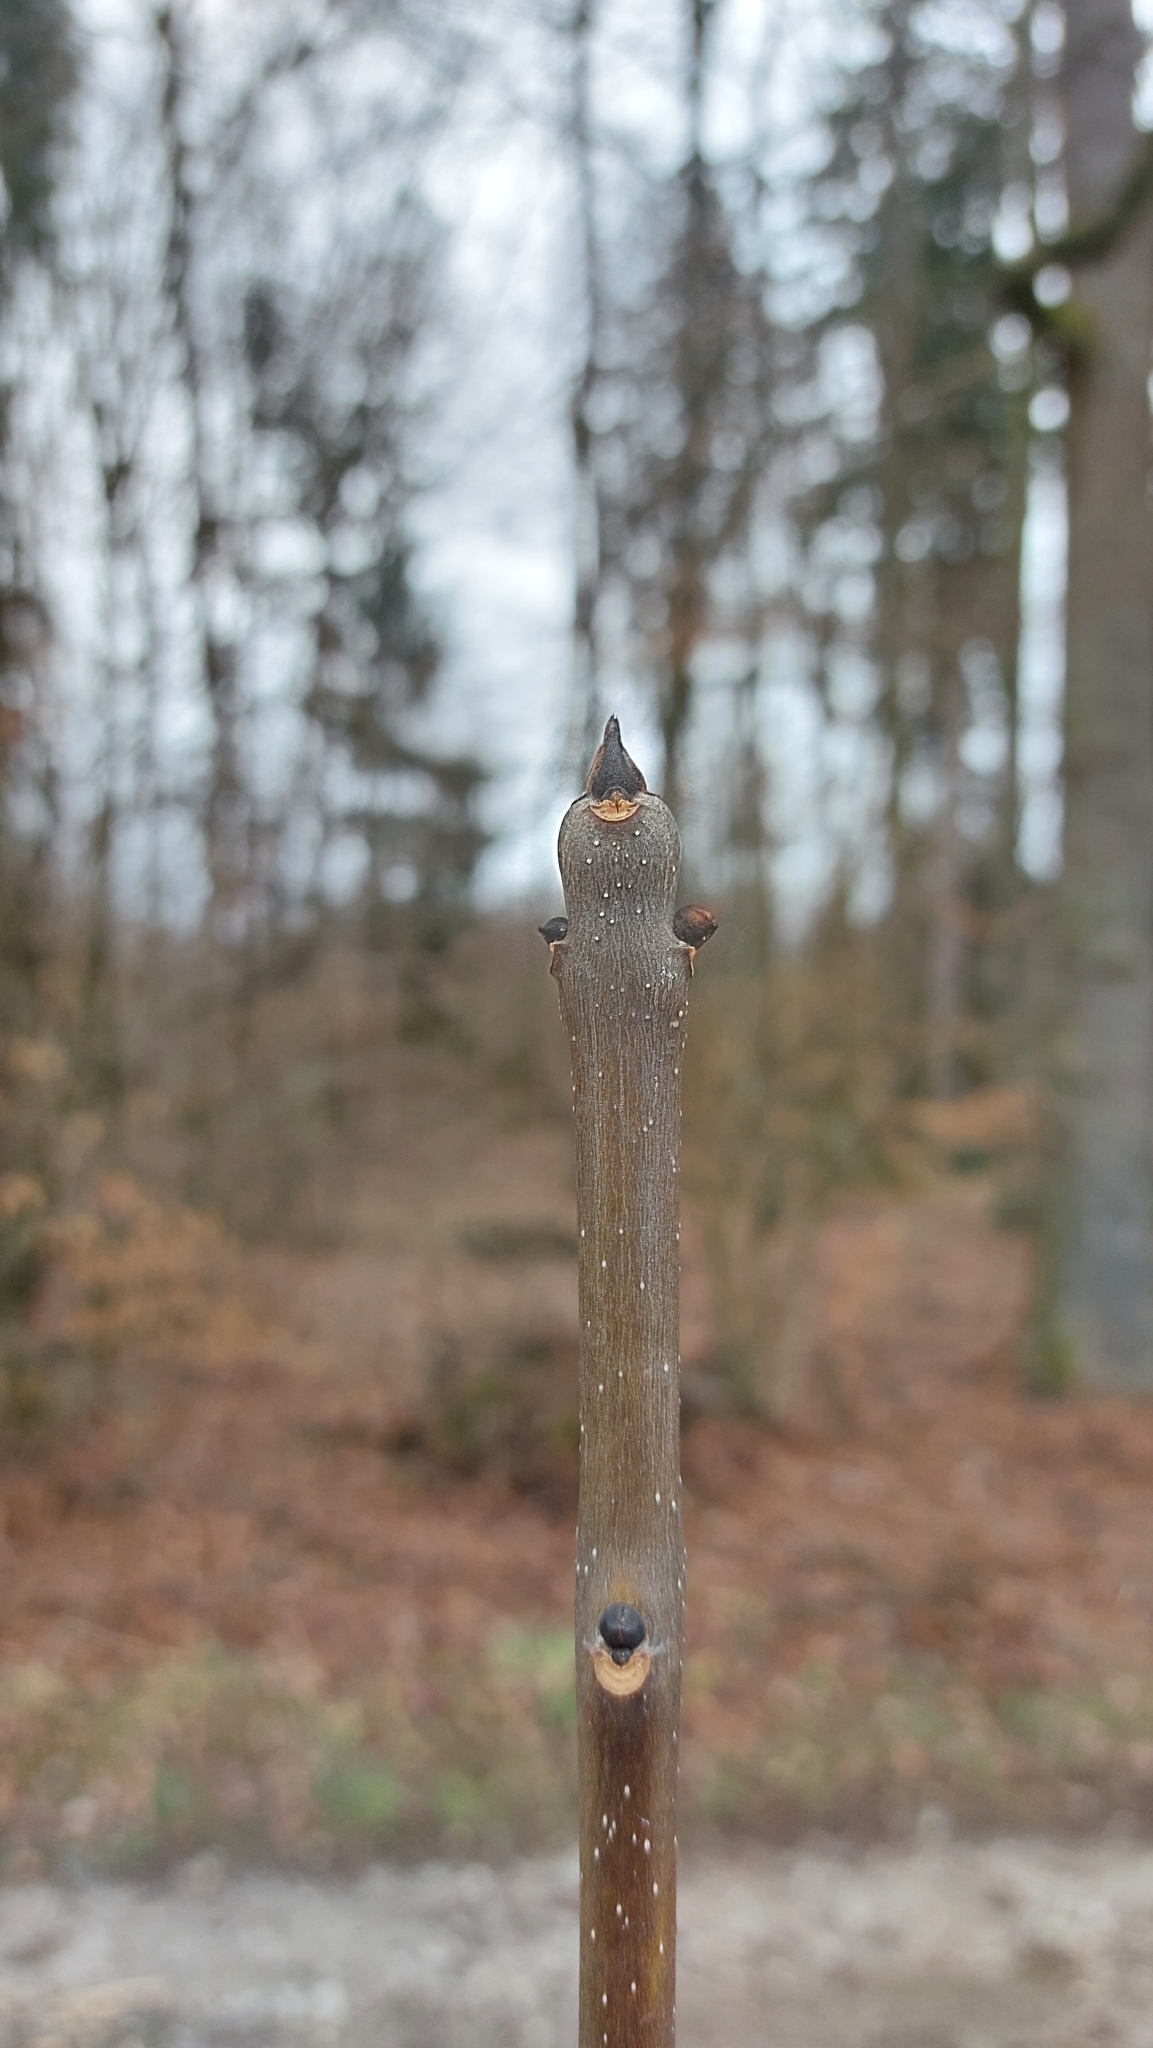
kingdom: Plantae
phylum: Tracheophyta
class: Magnoliopsida
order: Lamiales
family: Oleaceae
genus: Fraxinus
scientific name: Fraxinus excelsior
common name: European ash
